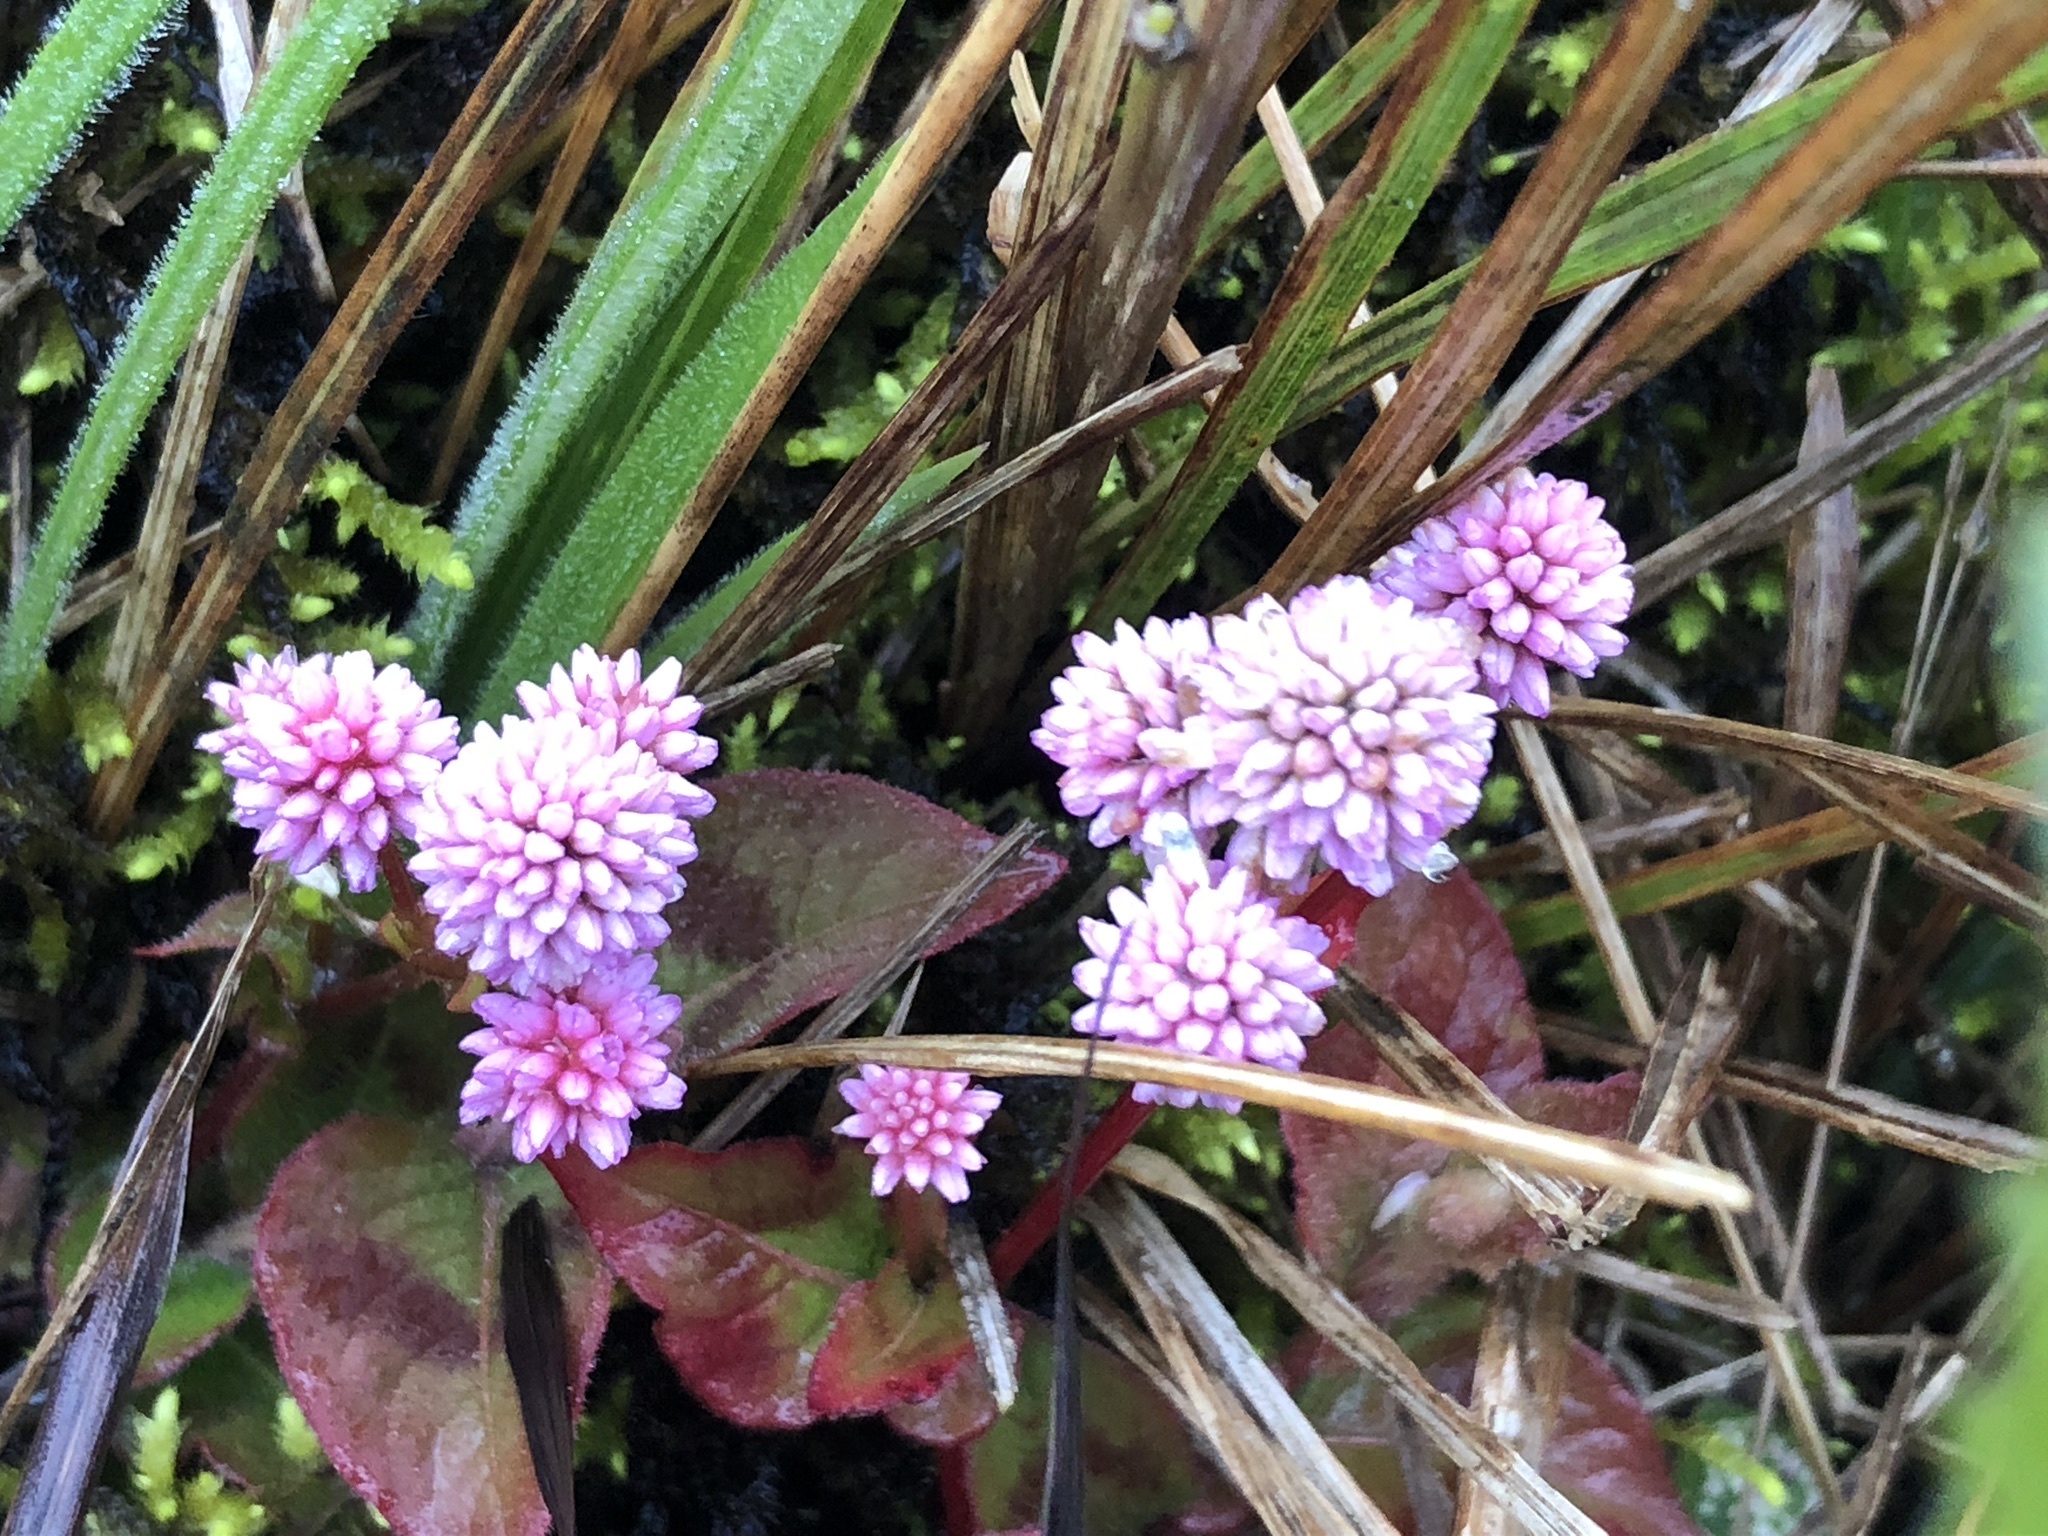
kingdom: Plantae
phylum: Tracheophyta
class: Magnoliopsida
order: Caryophyllales
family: Polygonaceae
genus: Persicaria
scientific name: Persicaria capitata
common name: Pinkhead smartweed
